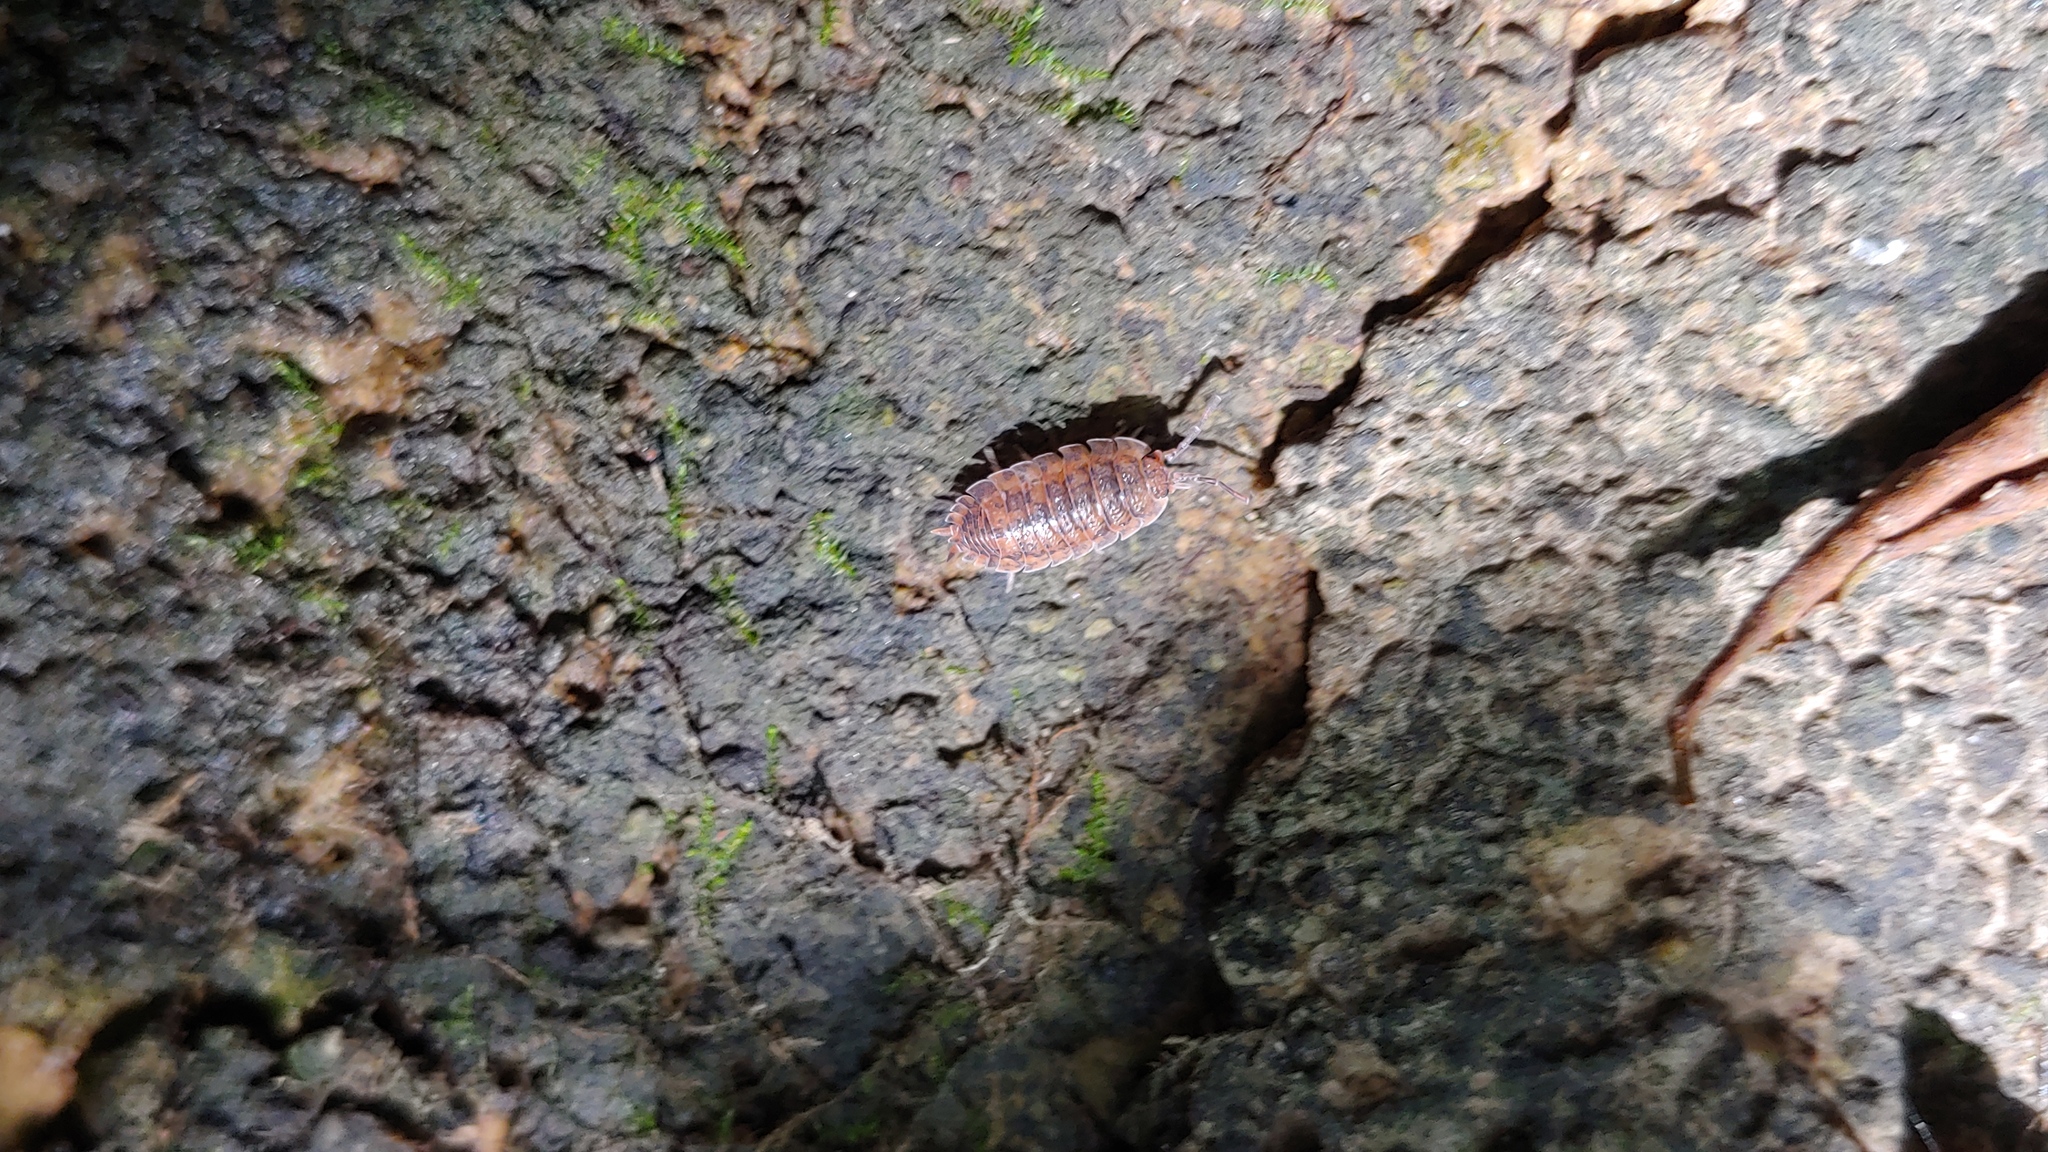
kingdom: Animalia
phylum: Arthropoda
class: Malacostraca
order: Isopoda
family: Porcellionidae
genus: Porcellio
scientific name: Porcellio scaber
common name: Common rough woodlouse
